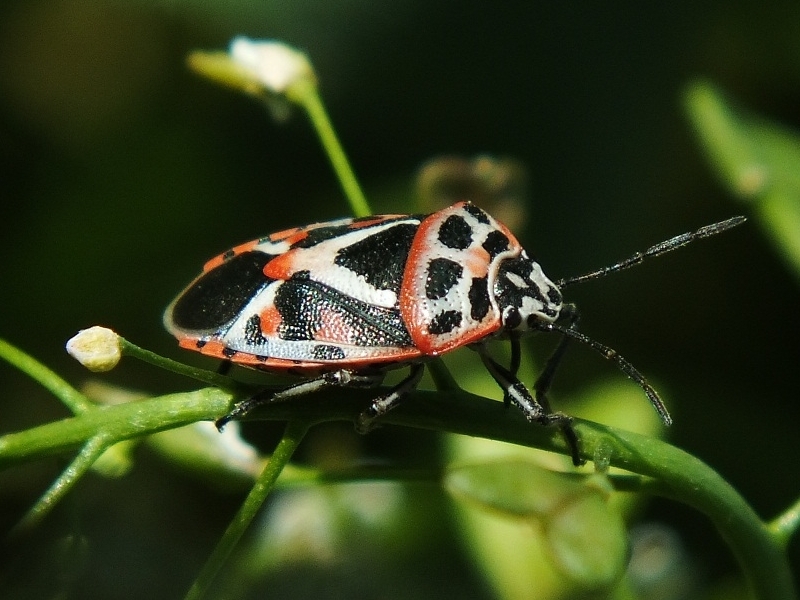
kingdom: Animalia
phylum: Arthropoda
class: Insecta
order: Hemiptera
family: Pentatomidae
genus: Eurydema
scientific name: Eurydema ornata
